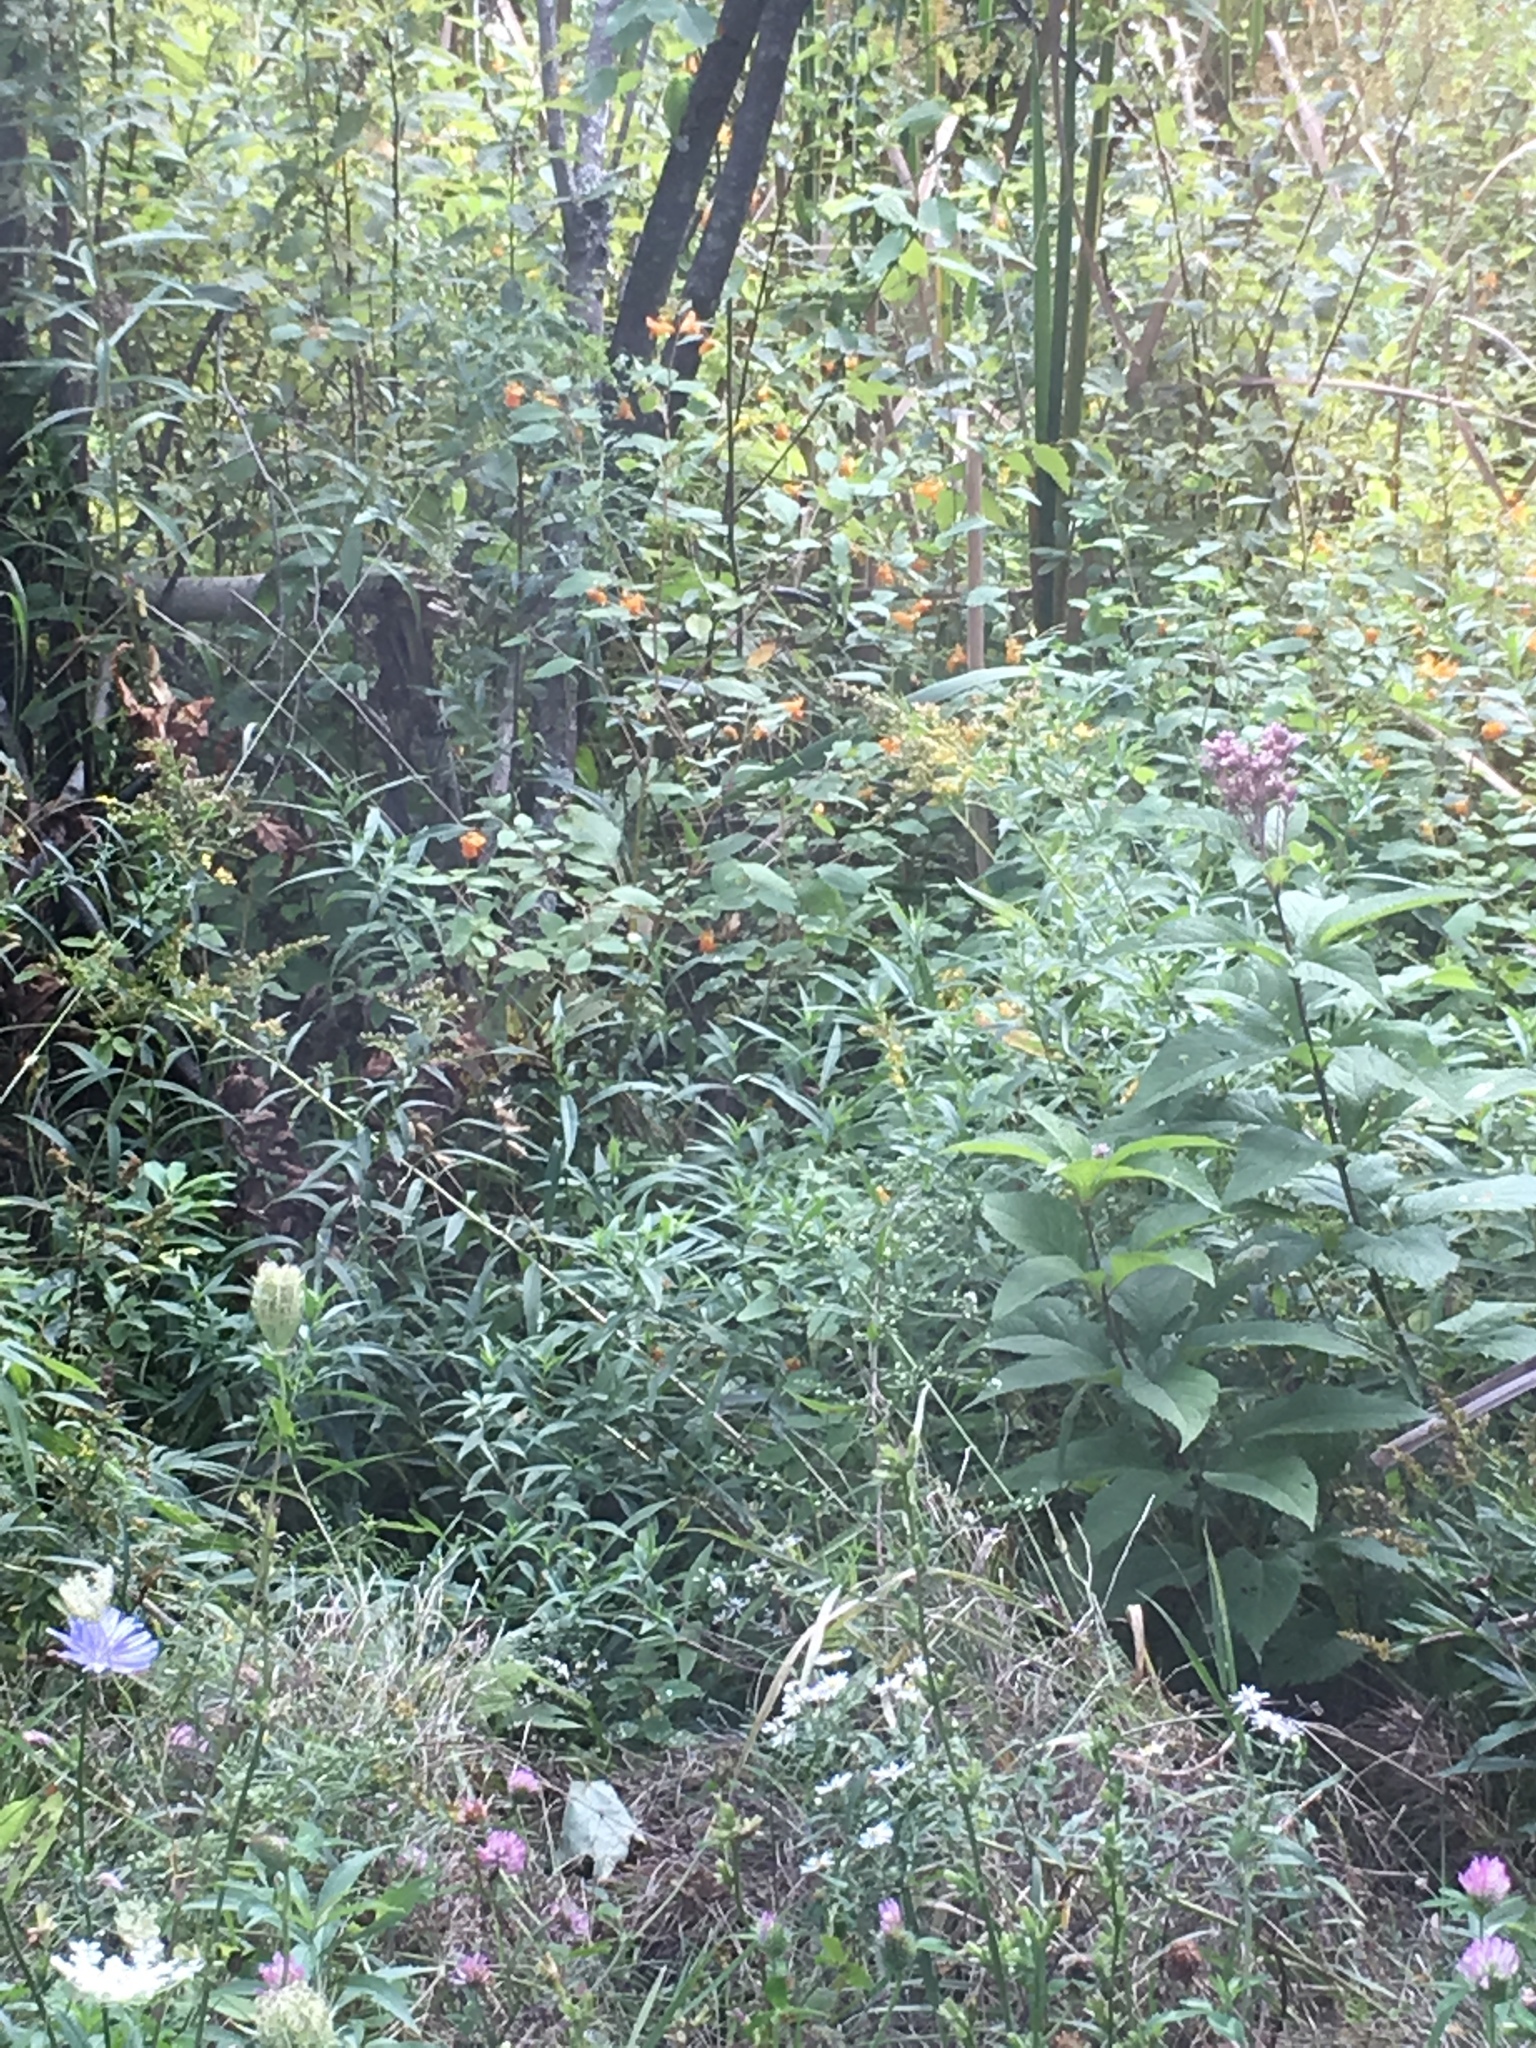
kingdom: Plantae
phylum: Tracheophyta
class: Magnoliopsida
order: Asterales
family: Asteraceae
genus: Eutrochium
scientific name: Eutrochium maculatum
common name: Spotted joe pye weed
